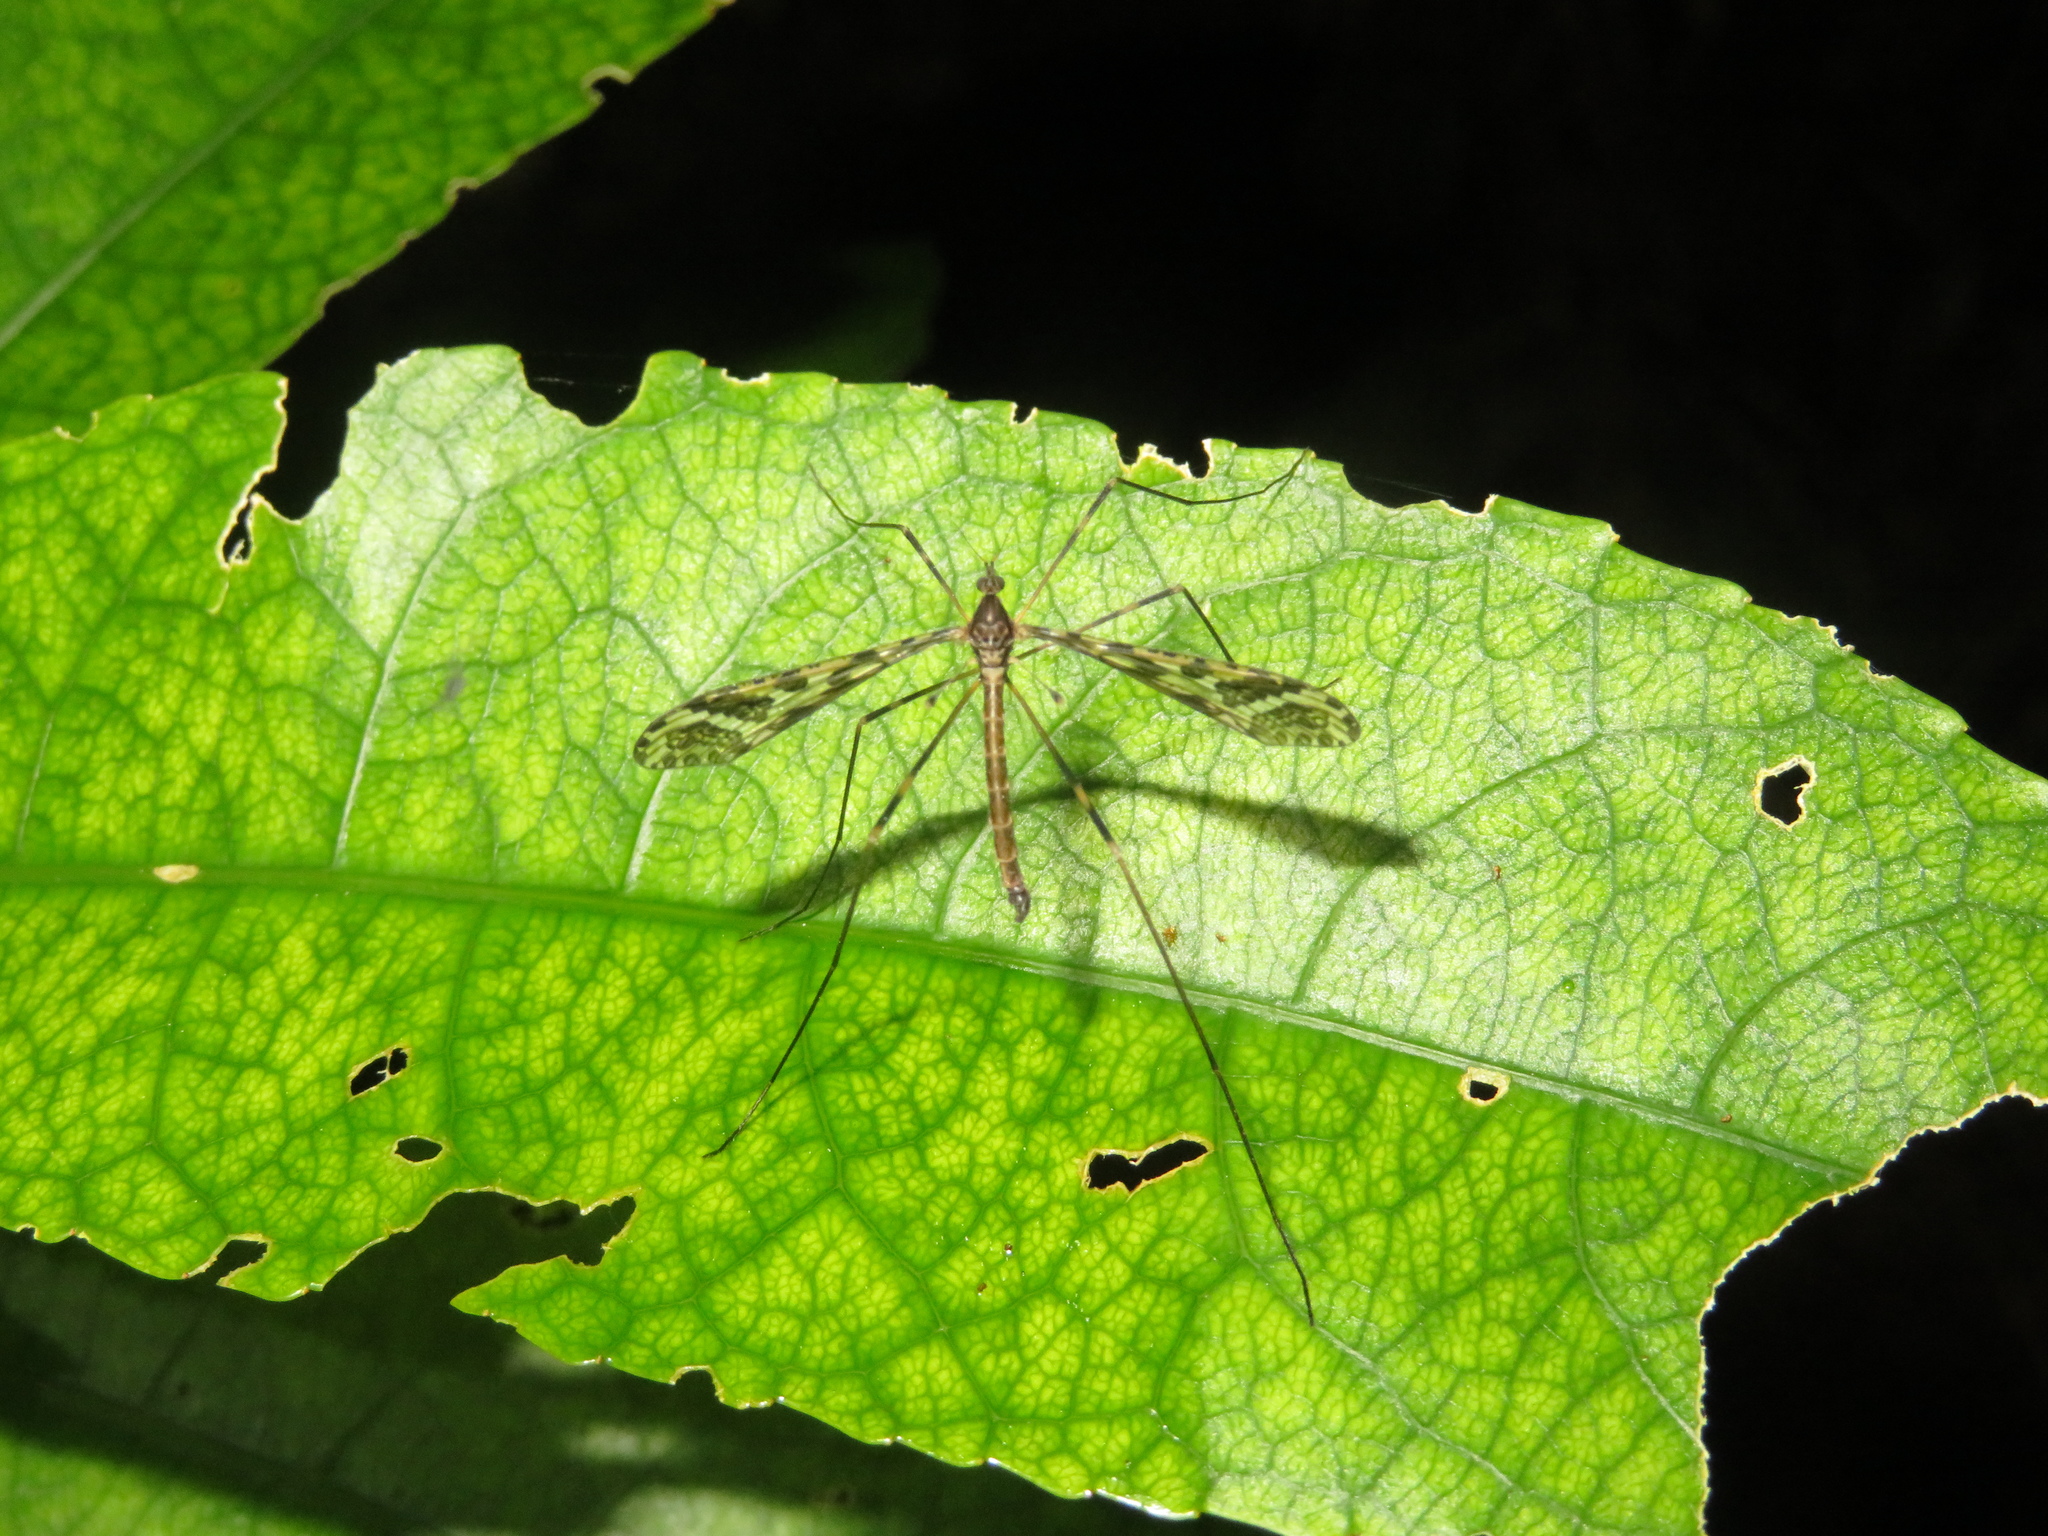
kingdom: Animalia
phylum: Arthropoda
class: Insecta
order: Diptera
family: Limoniidae
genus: Austrolimnophila
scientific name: Austrolimnophila geographica
